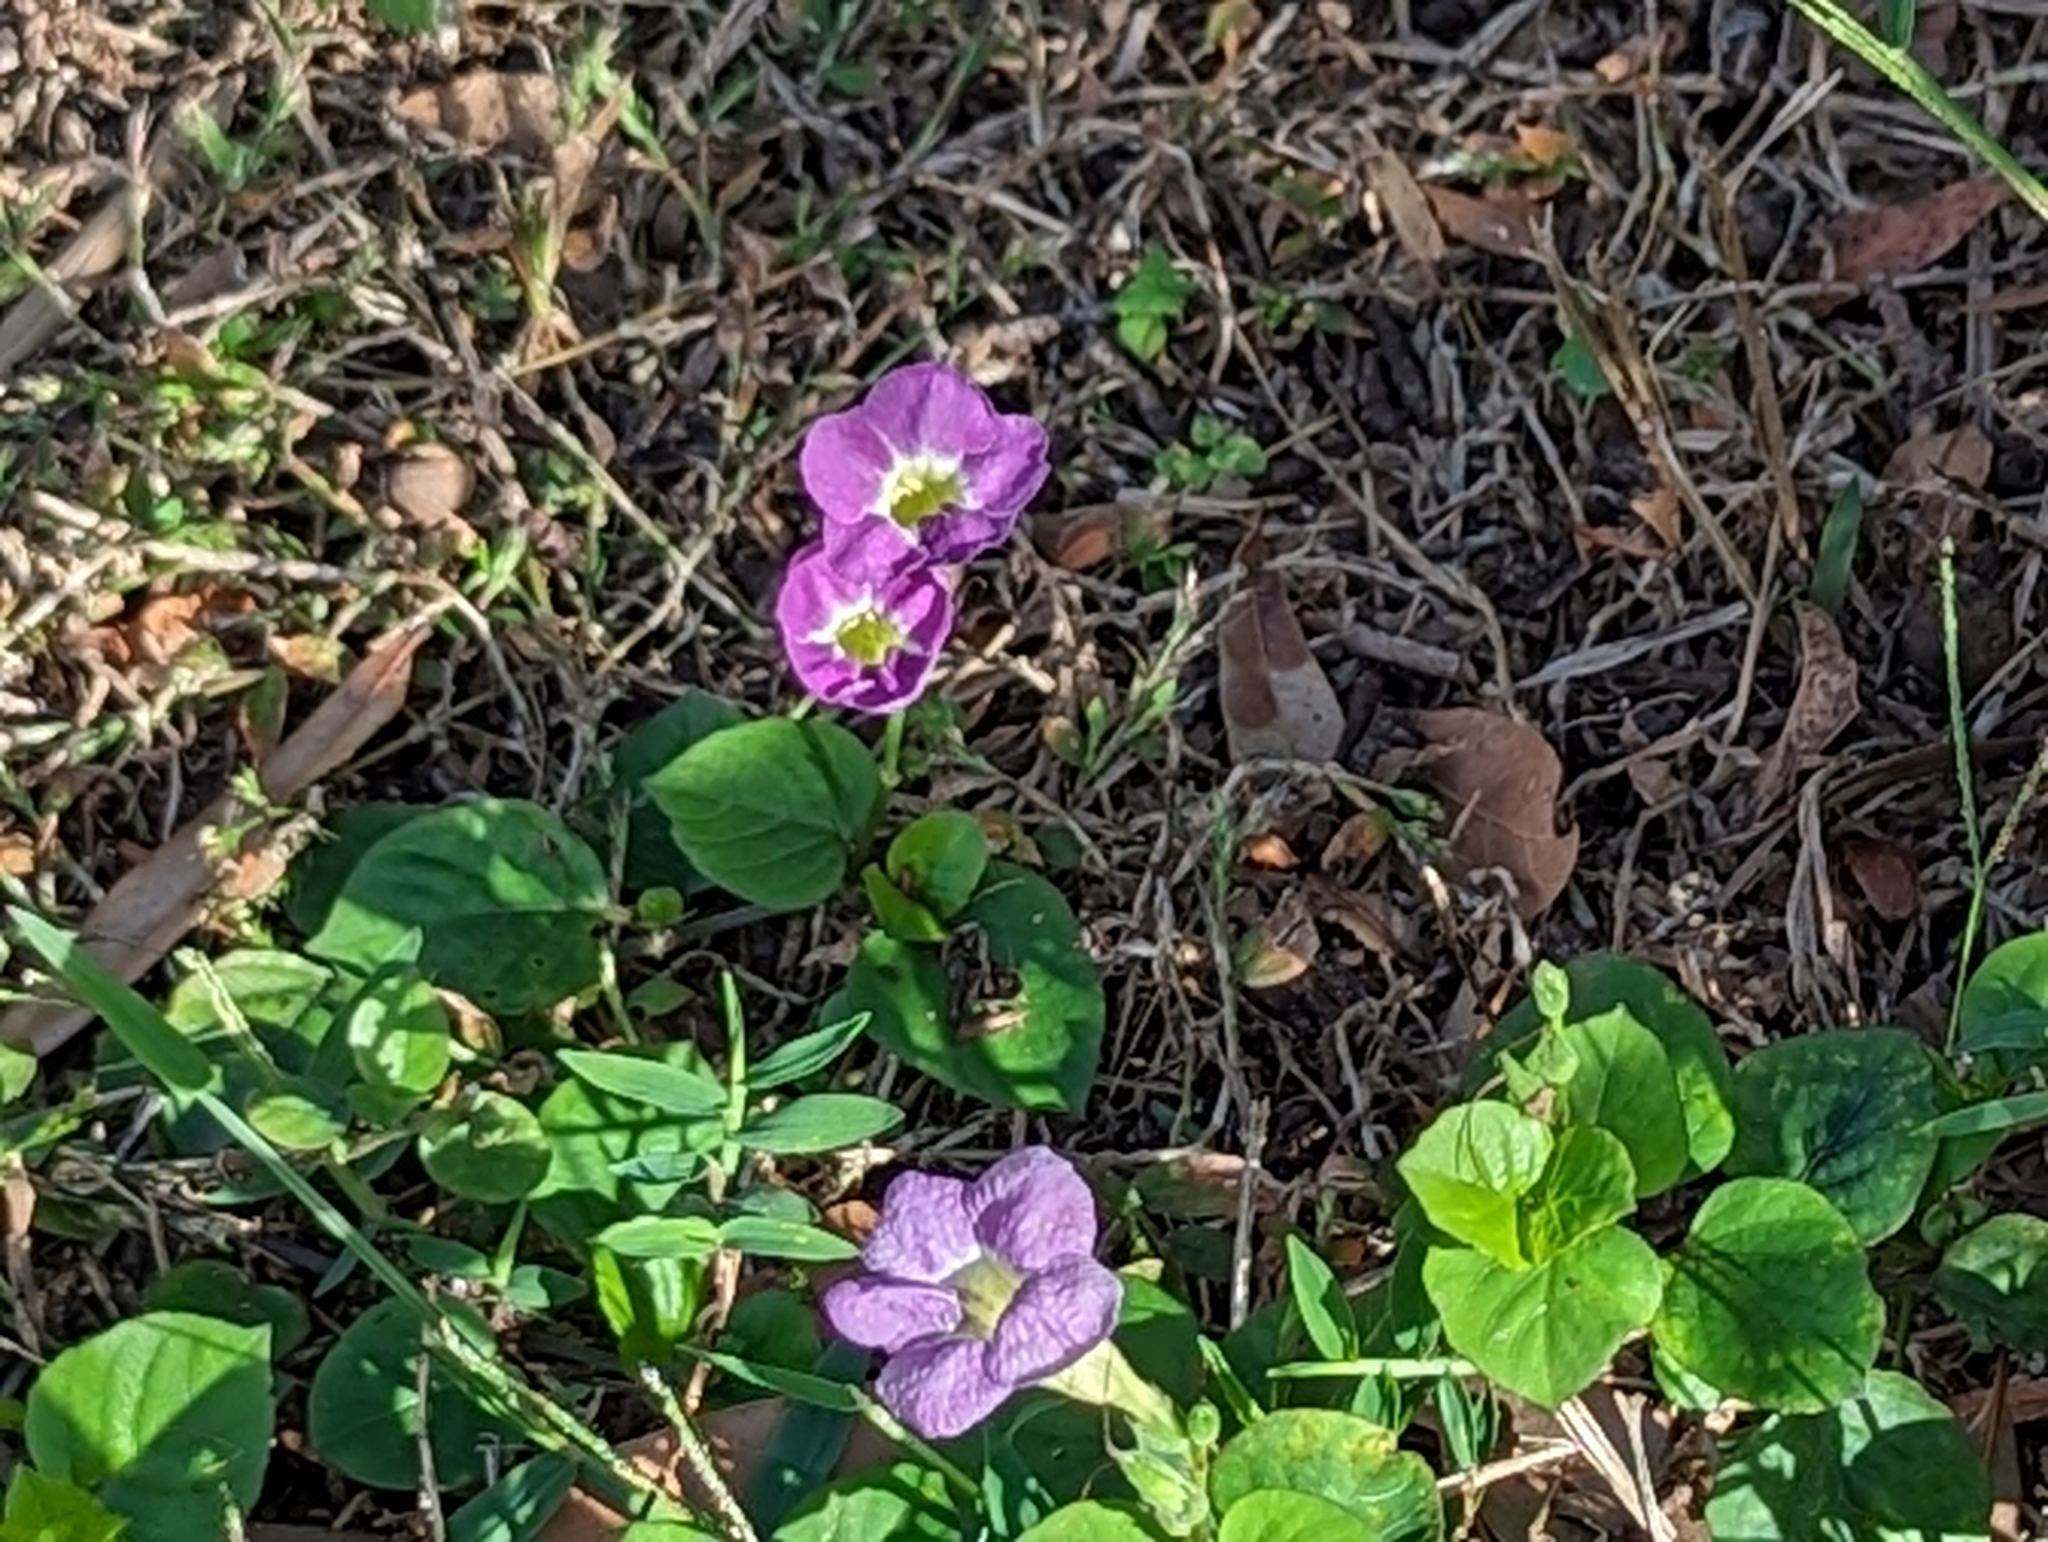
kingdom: Plantae
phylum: Tracheophyta
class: Magnoliopsida
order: Lamiales
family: Acanthaceae
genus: Asystasia
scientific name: Asystasia gangetica
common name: Chinese violet
